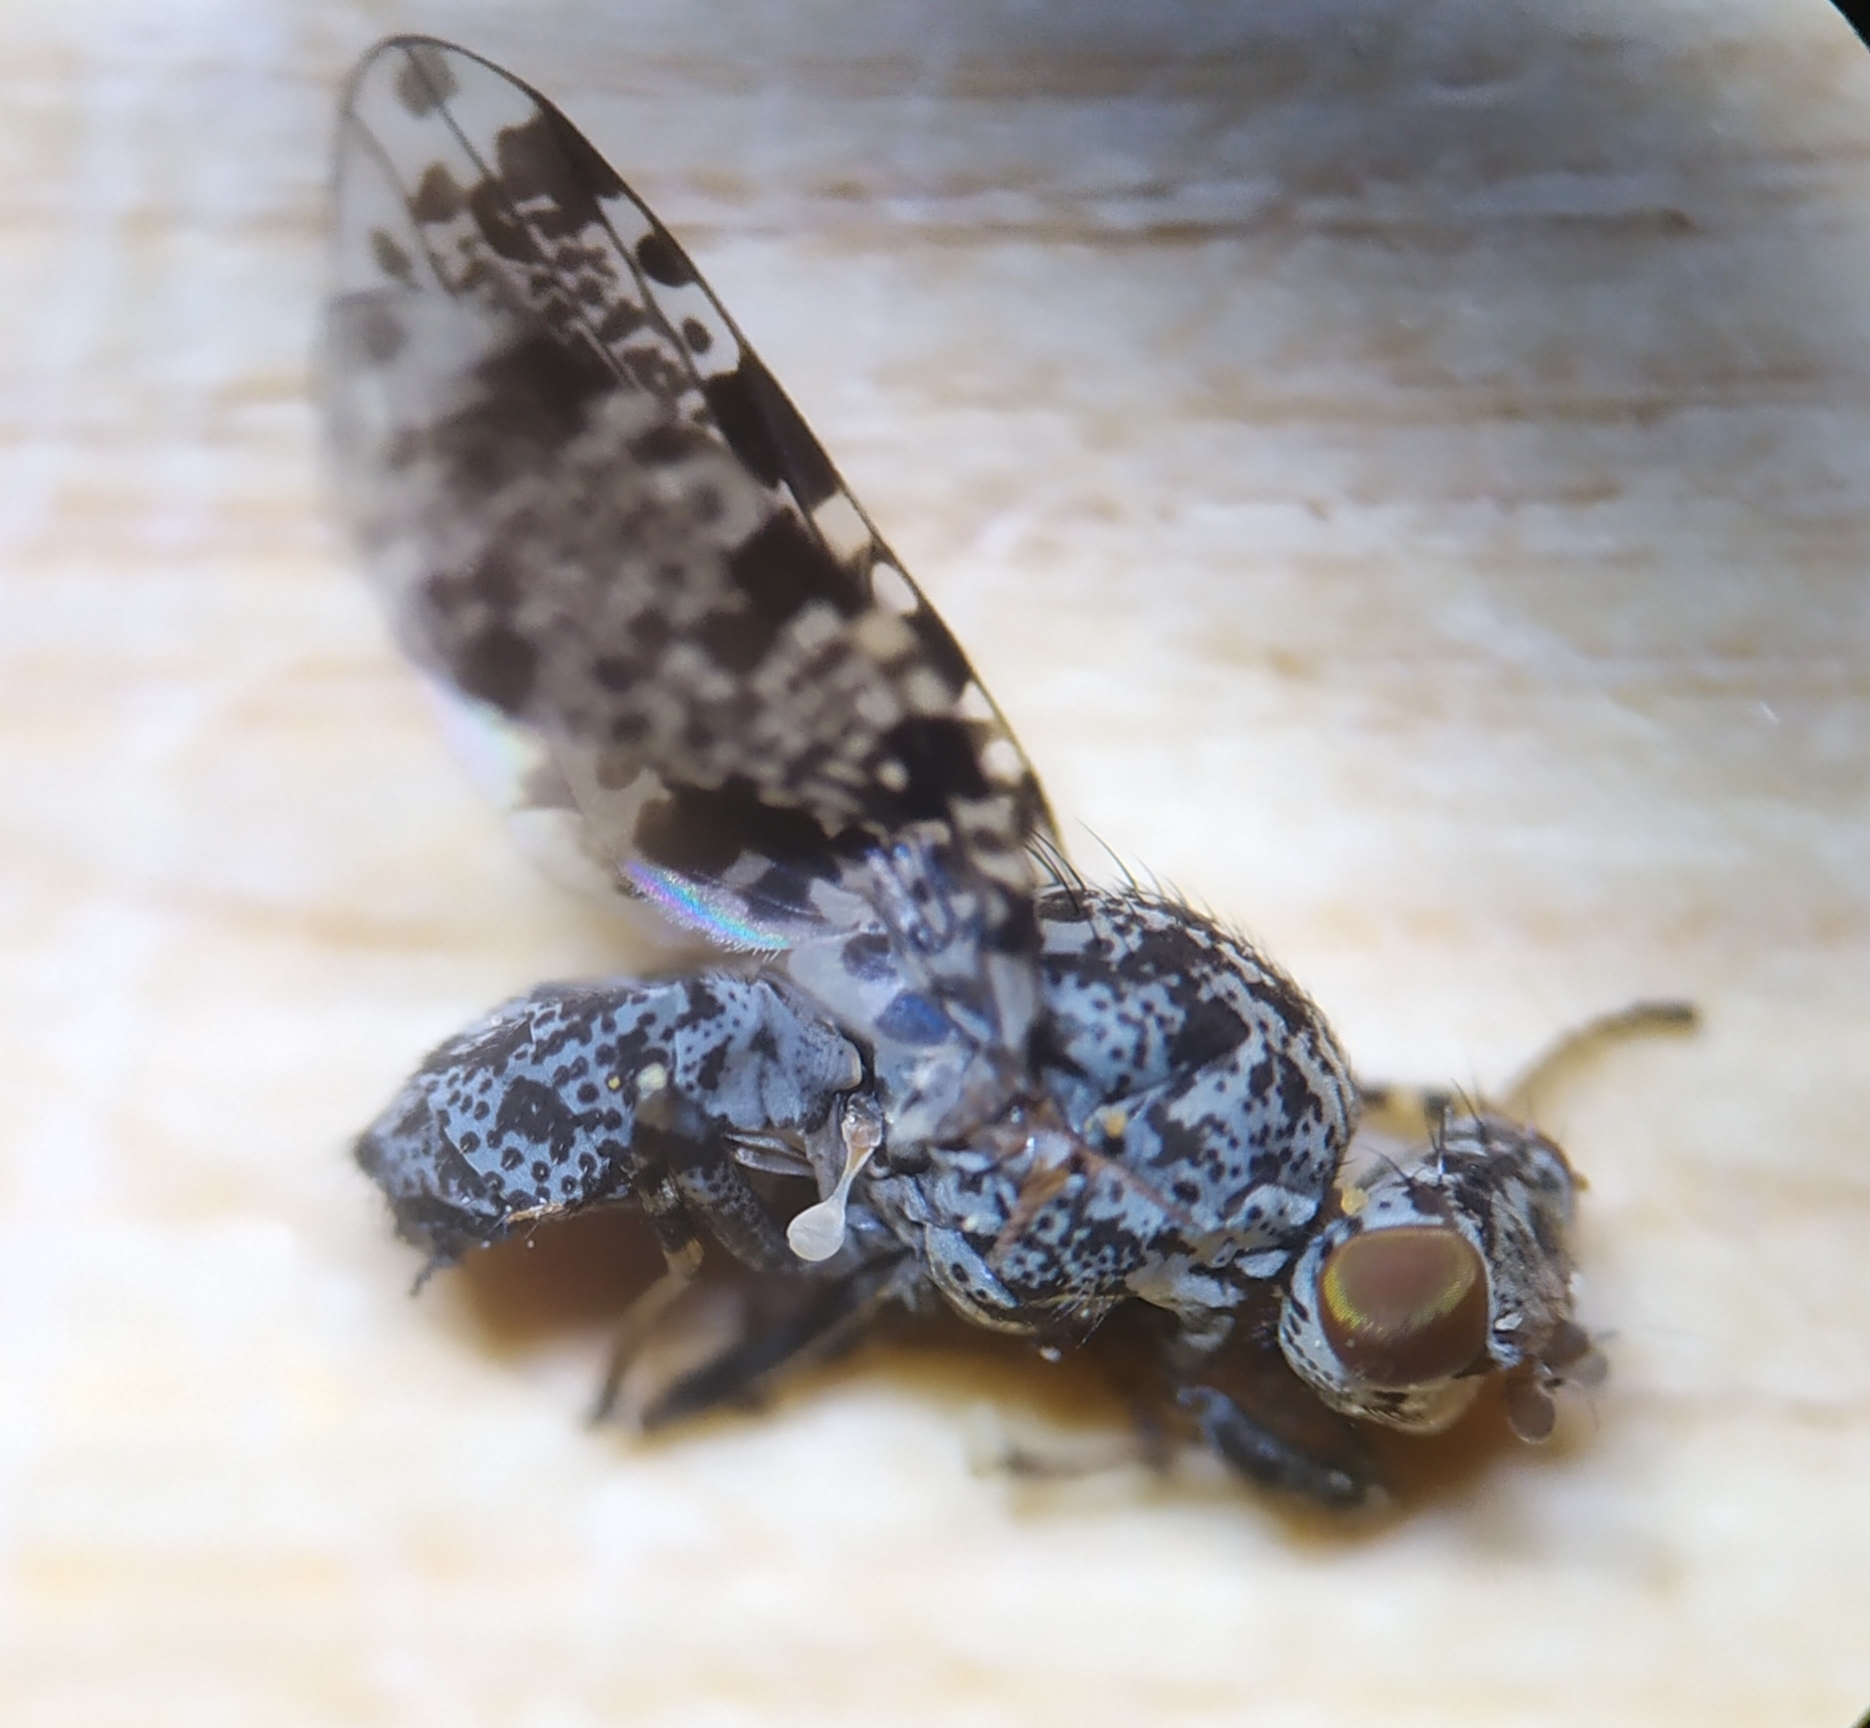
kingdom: Animalia
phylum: Arthropoda
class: Insecta
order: Diptera
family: Ulidiidae
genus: Callopistromyia
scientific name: Callopistromyia annulipes
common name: Peacock fly
